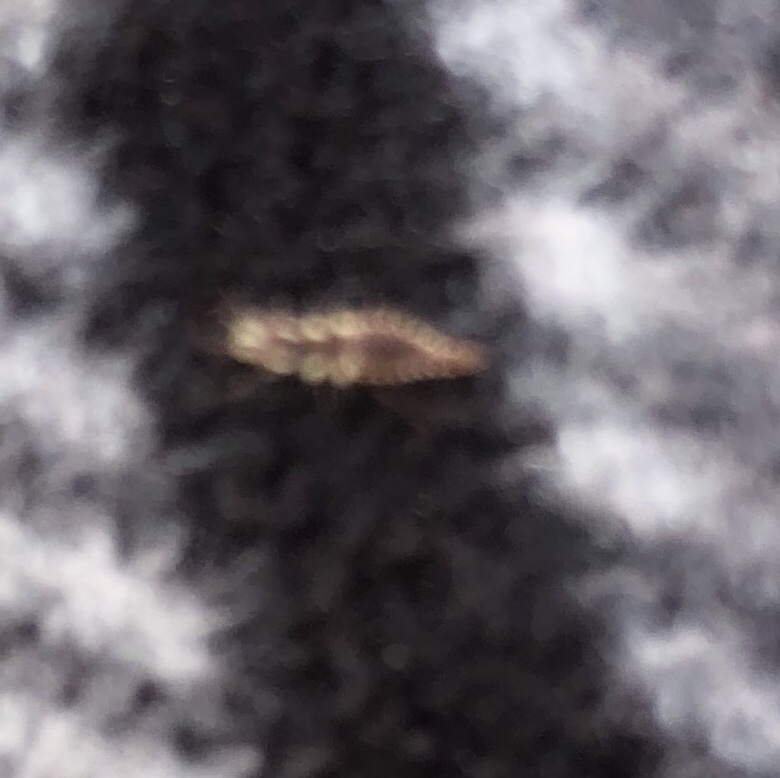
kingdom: Animalia
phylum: Arthropoda
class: Insecta
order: Neuroptera
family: Chrysopidae
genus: Chrysoperla
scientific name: Chrysoperla rufilabris
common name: Red-lipped green lacewing
